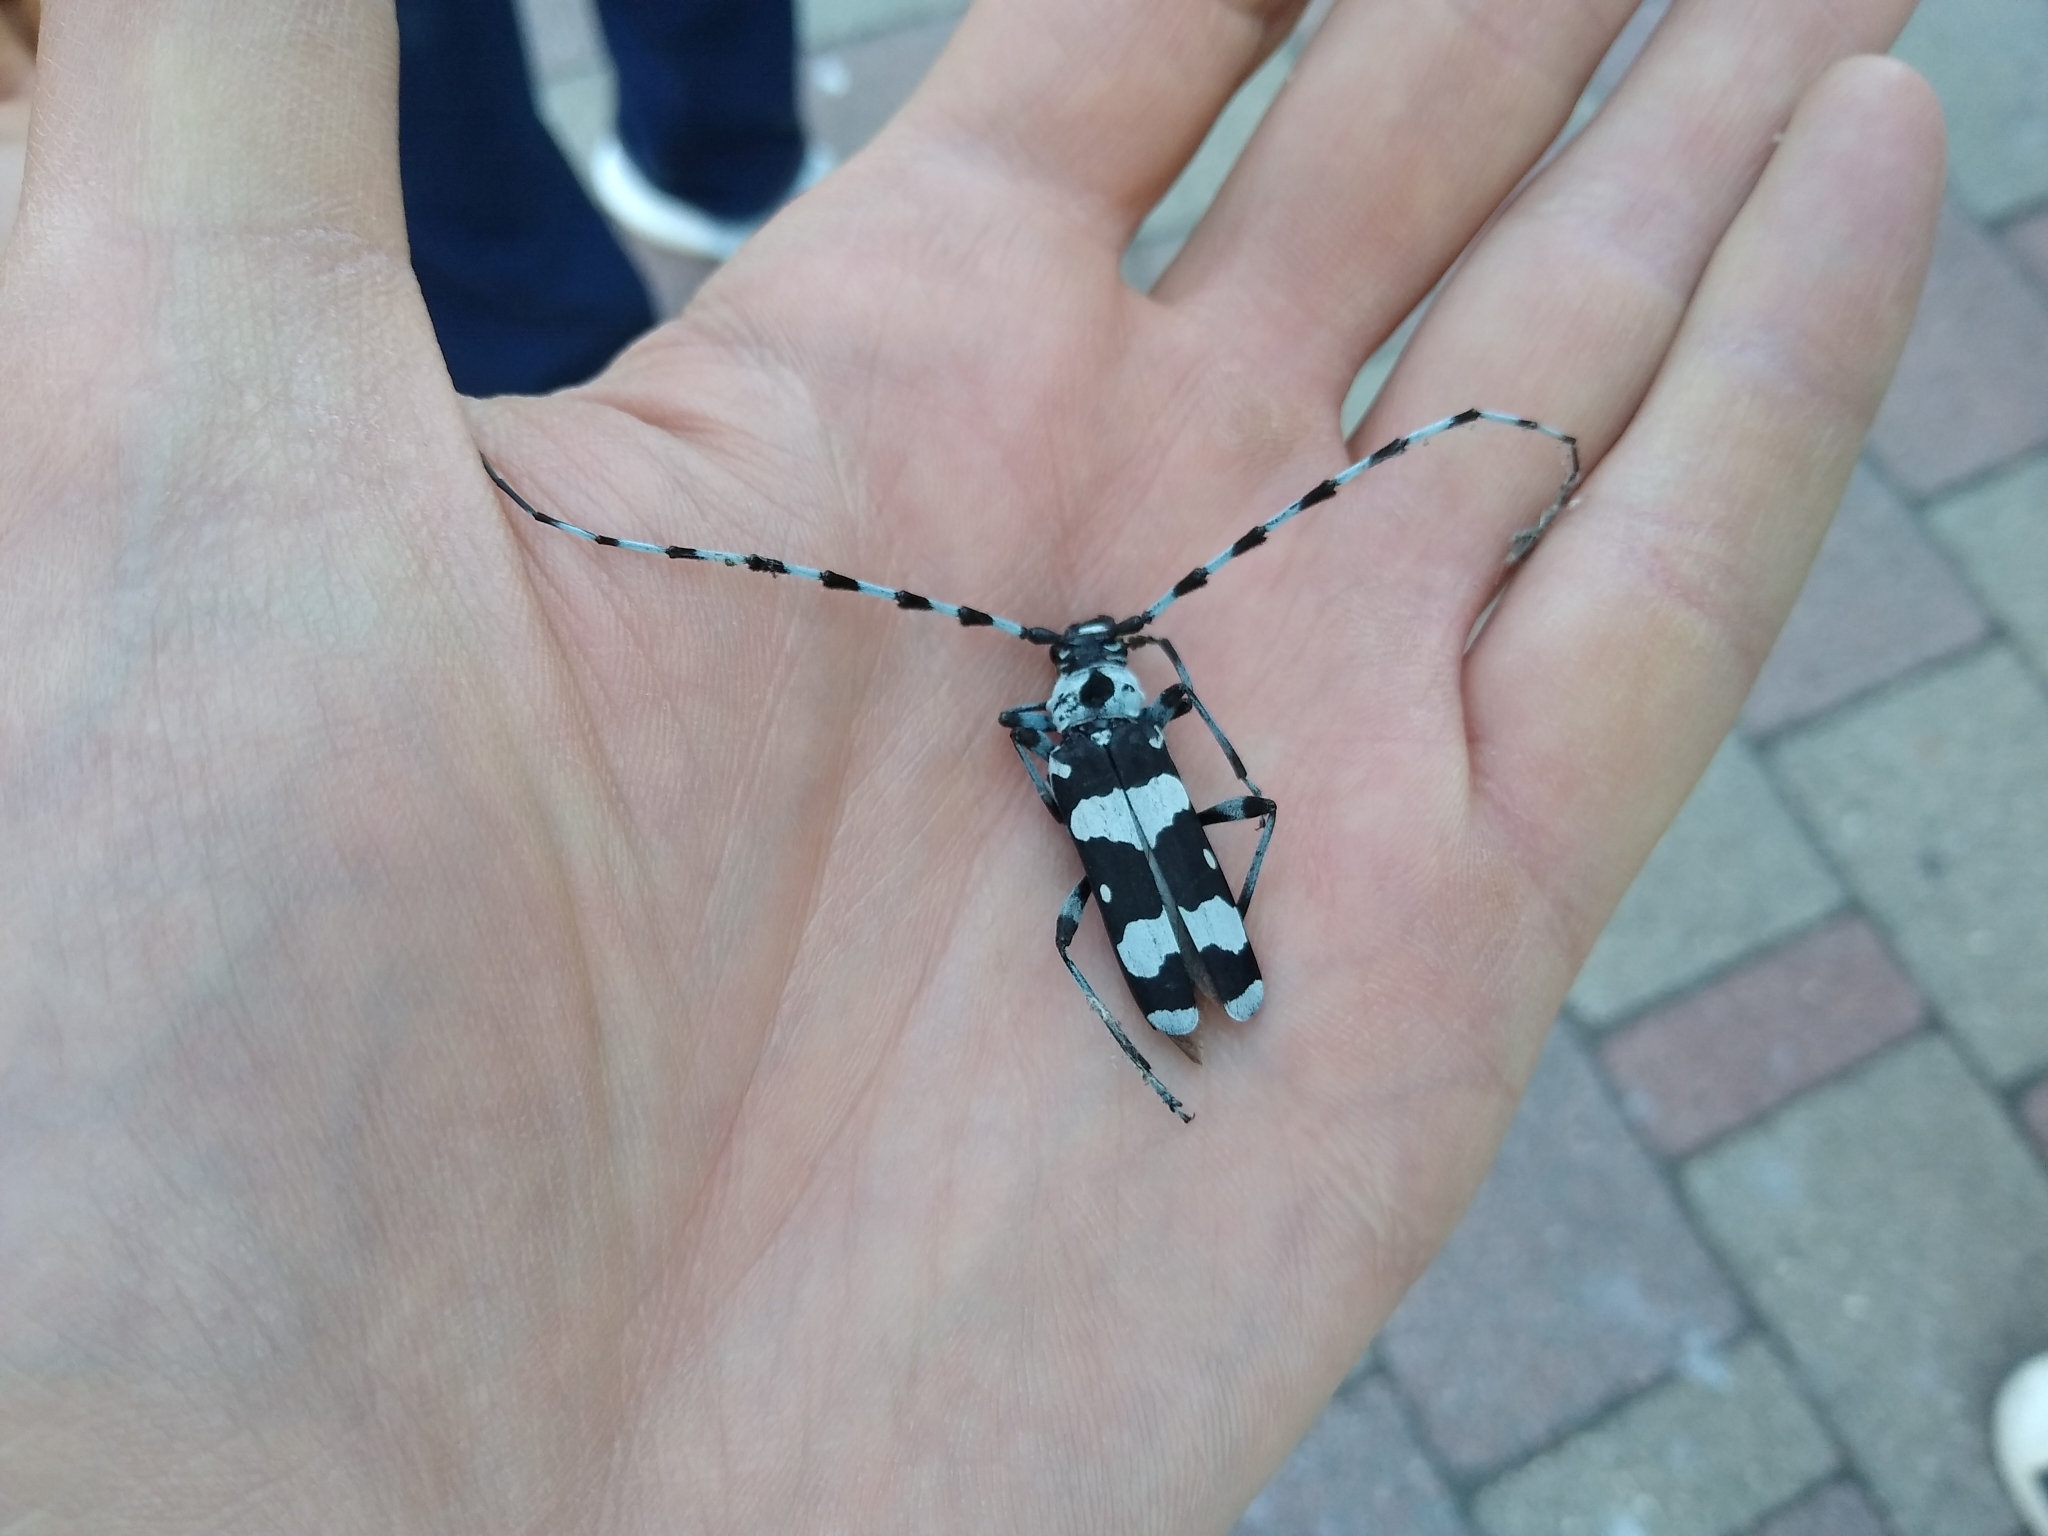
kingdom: Animalia
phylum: Arthropoda
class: Insecta
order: Coleoptera
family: Cerambycidae
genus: Rosalia
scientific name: Rosalia funebris
